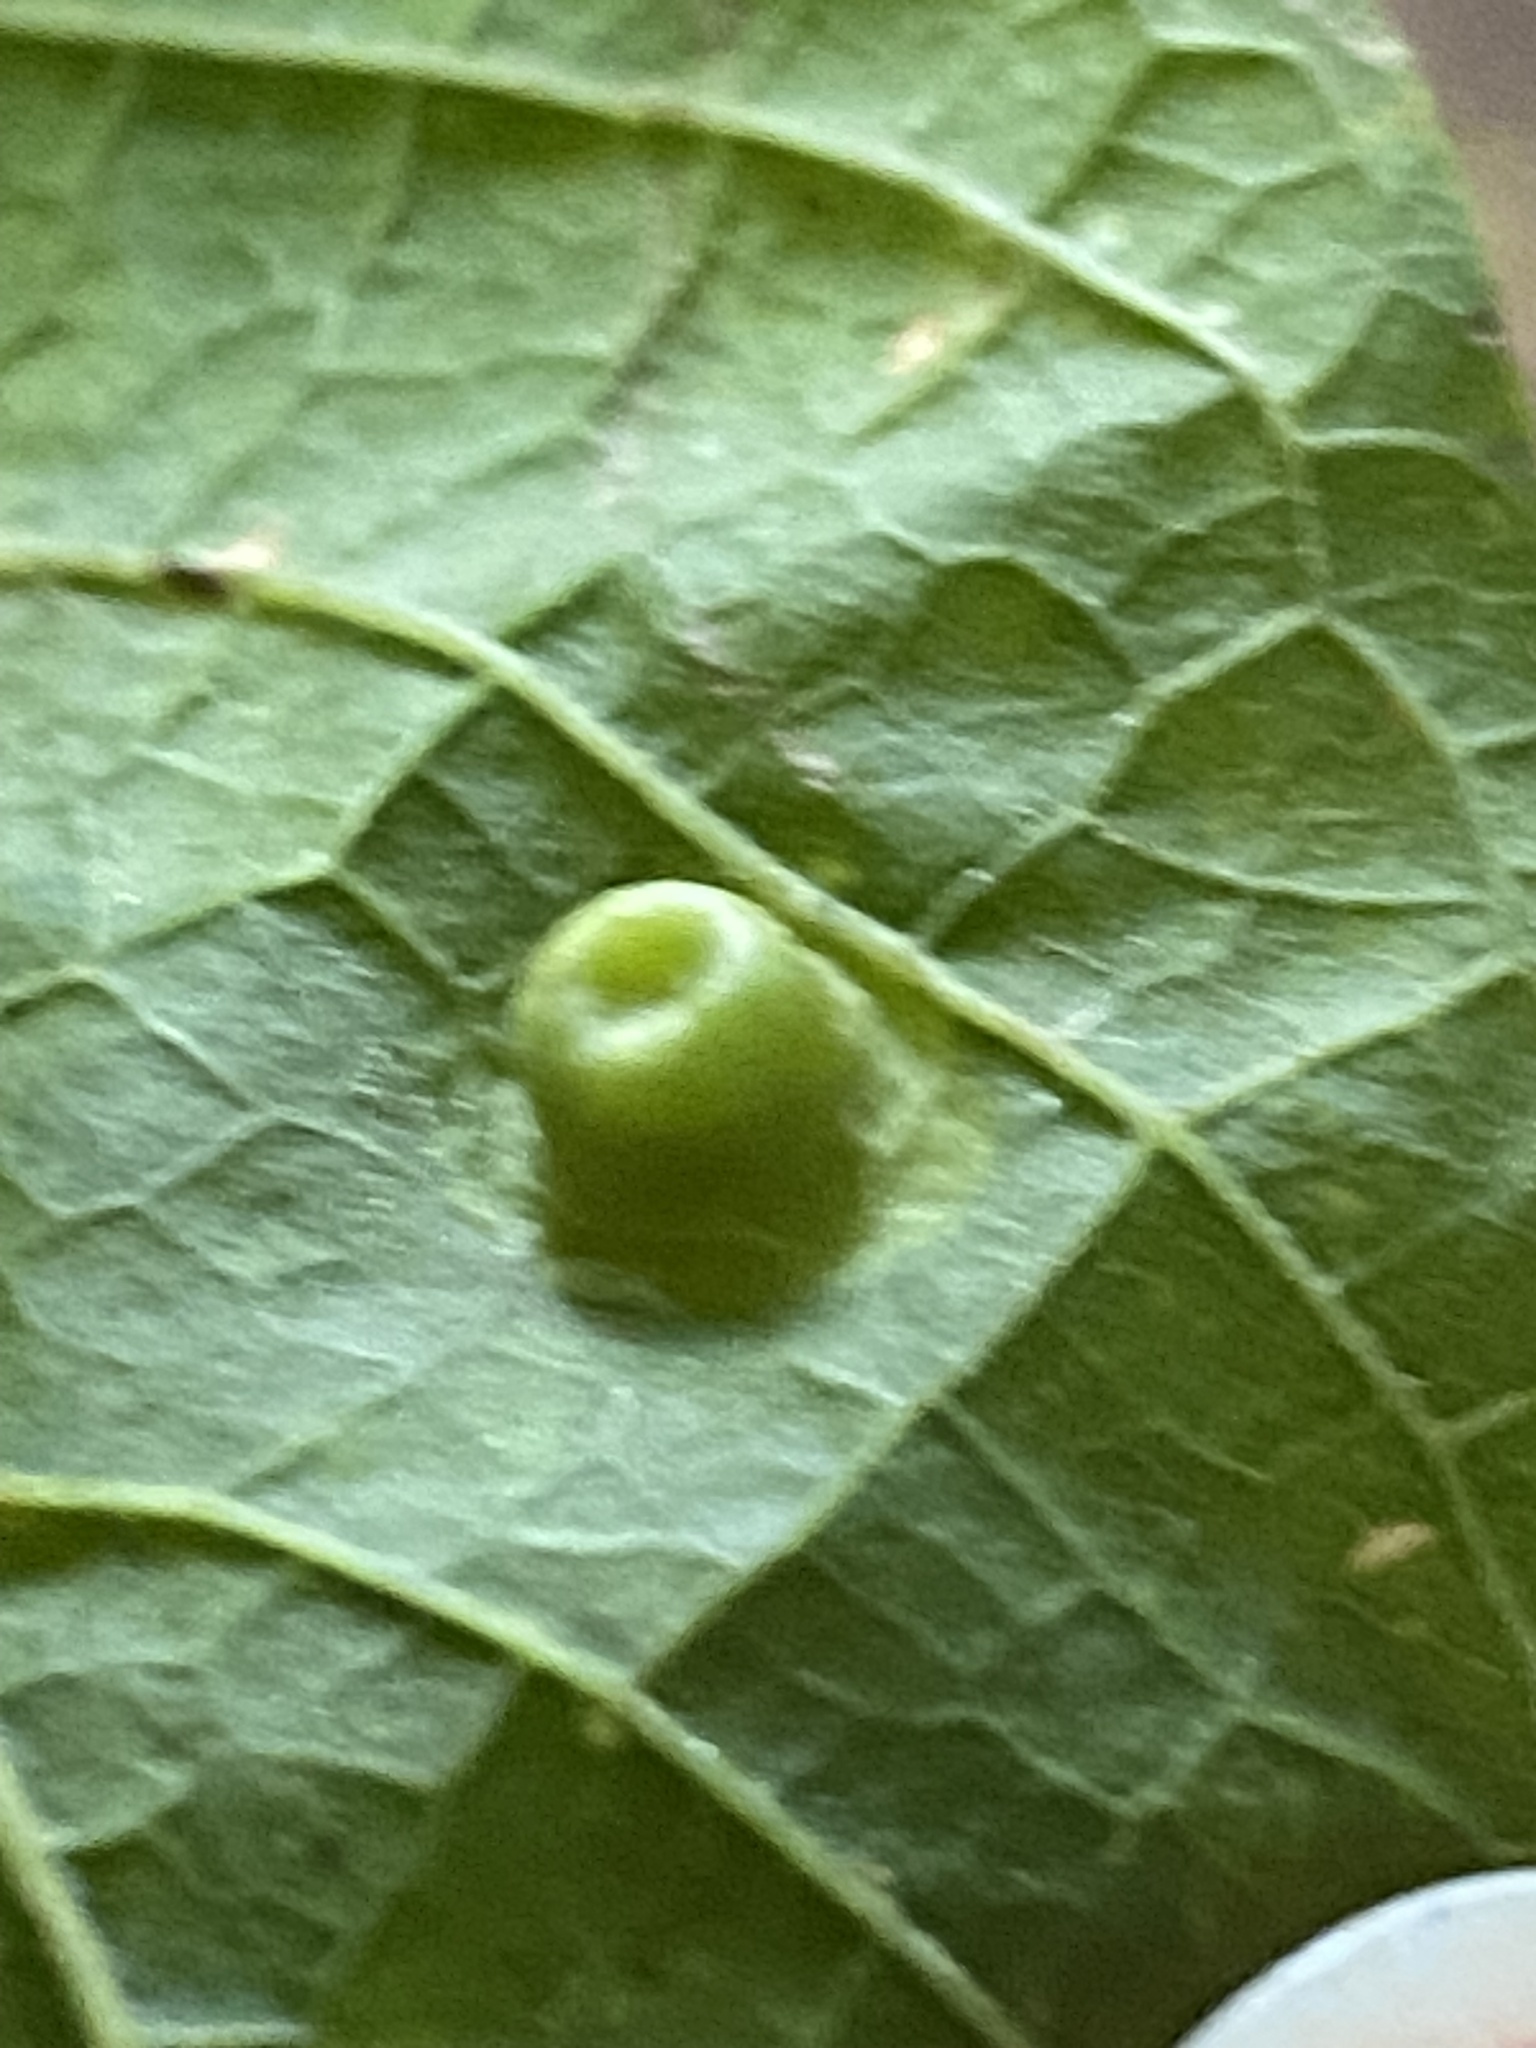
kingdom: Animalia
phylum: Arthropoda
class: Insecta
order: Hemiptera
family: Aphalaridae
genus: Pachypsylla
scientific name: Pachypsylla celtidismamma
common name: Hackberry nipplegall psyllid
